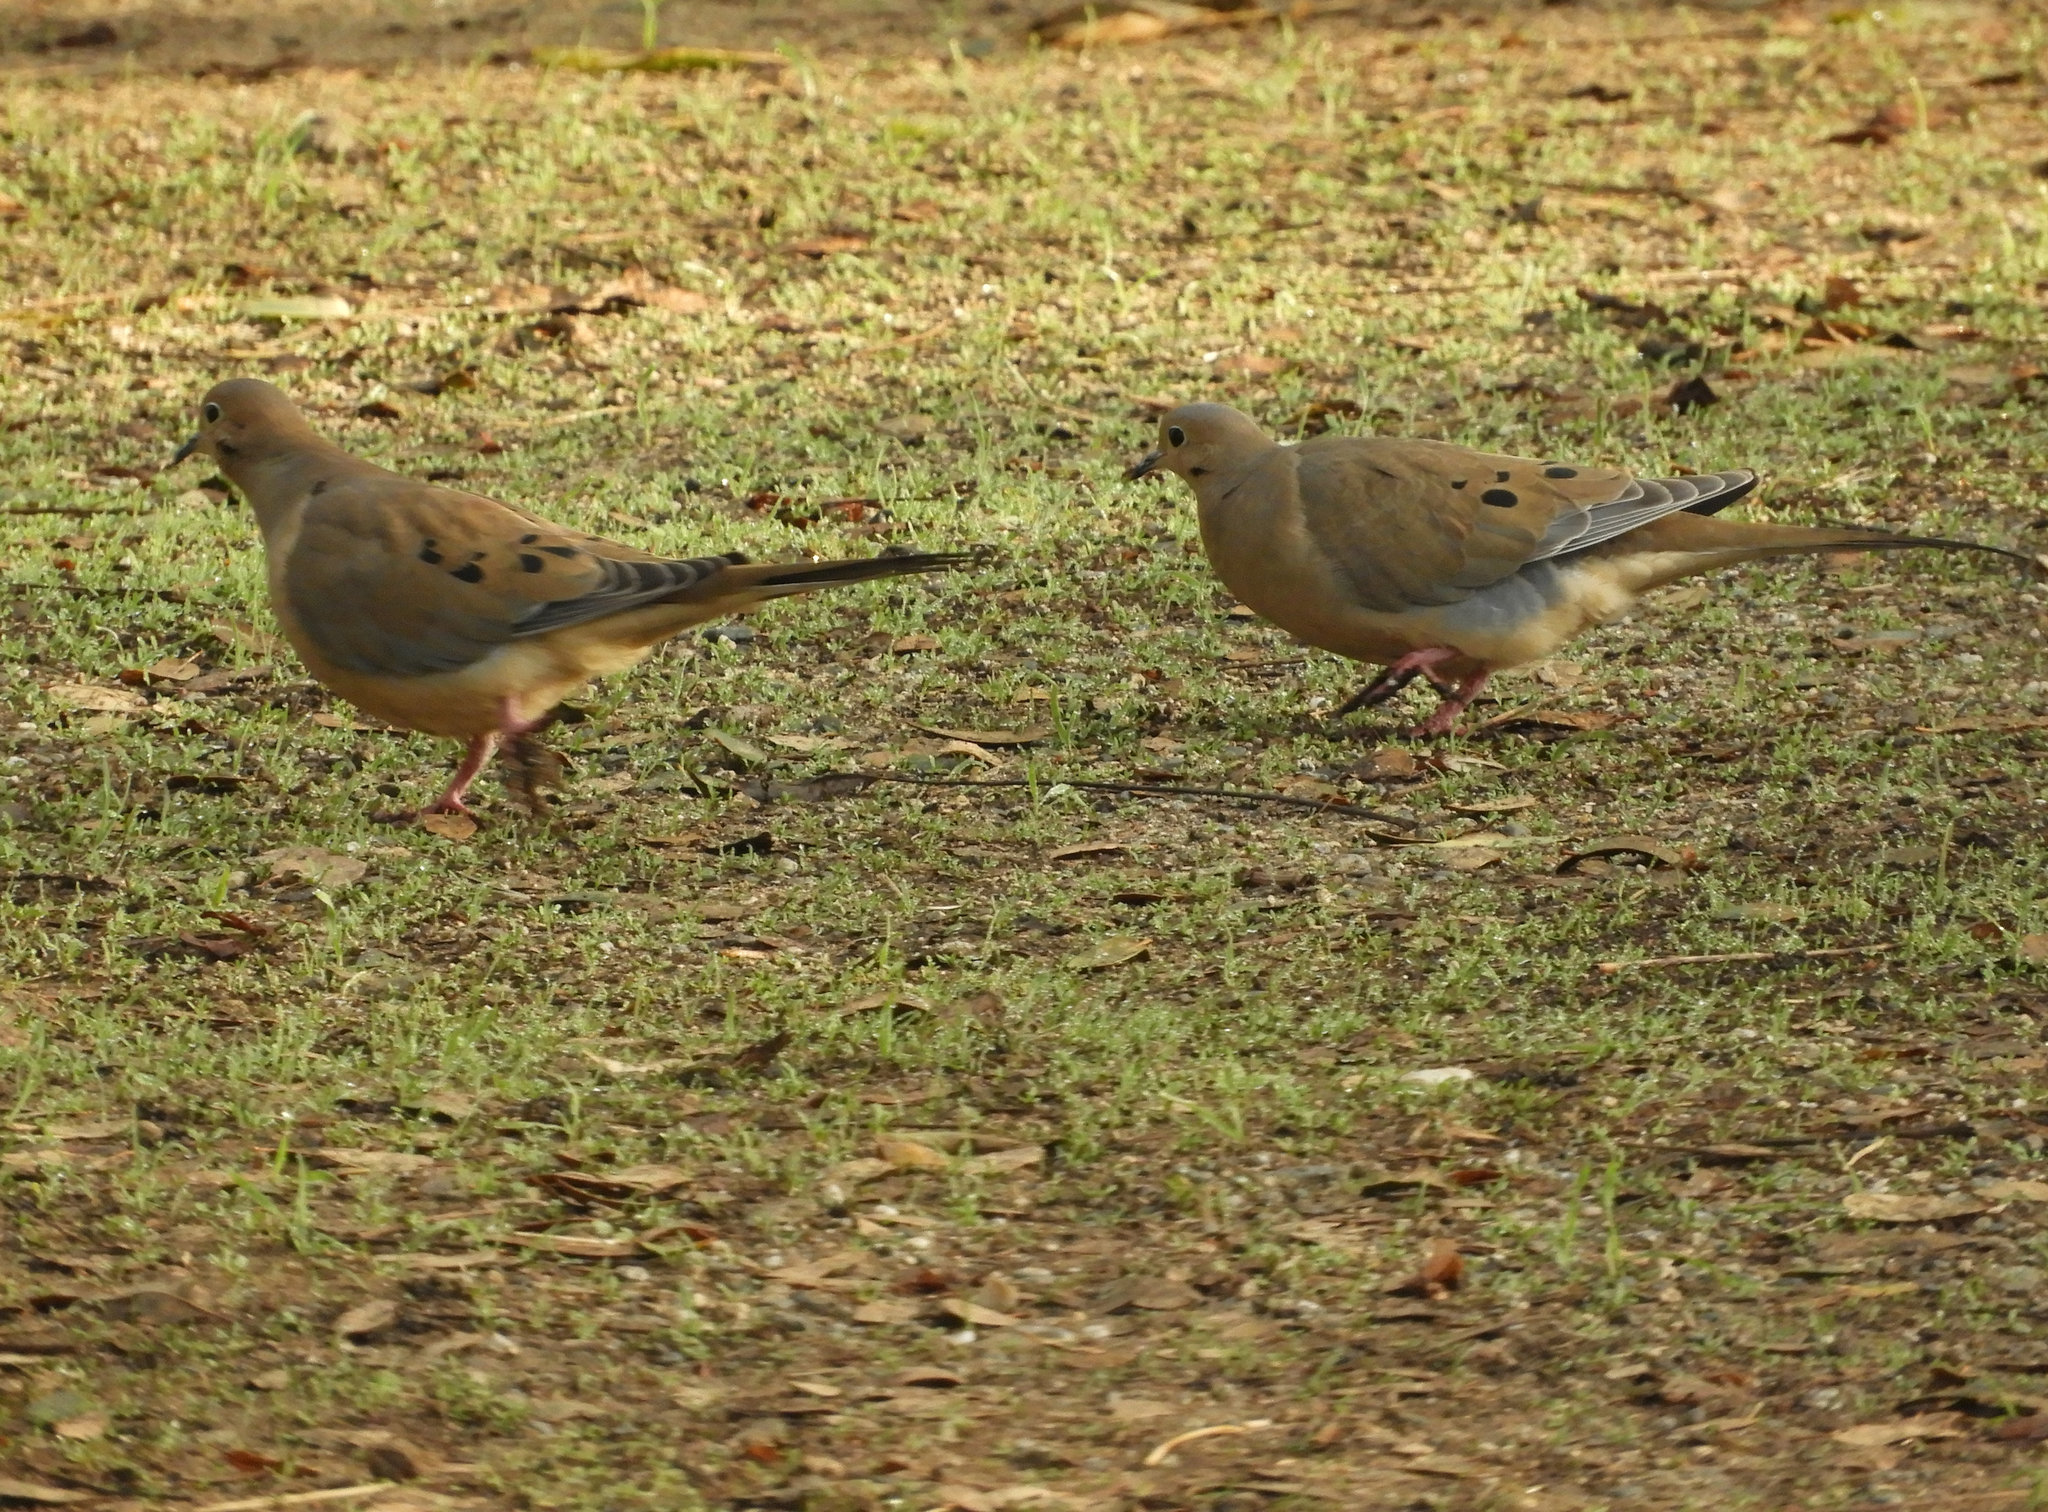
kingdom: Animalia
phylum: Chordata
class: Aves
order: Columbiformes
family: Columbidae
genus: Zenaida
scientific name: Zenaida macroura
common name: Mourning dove
